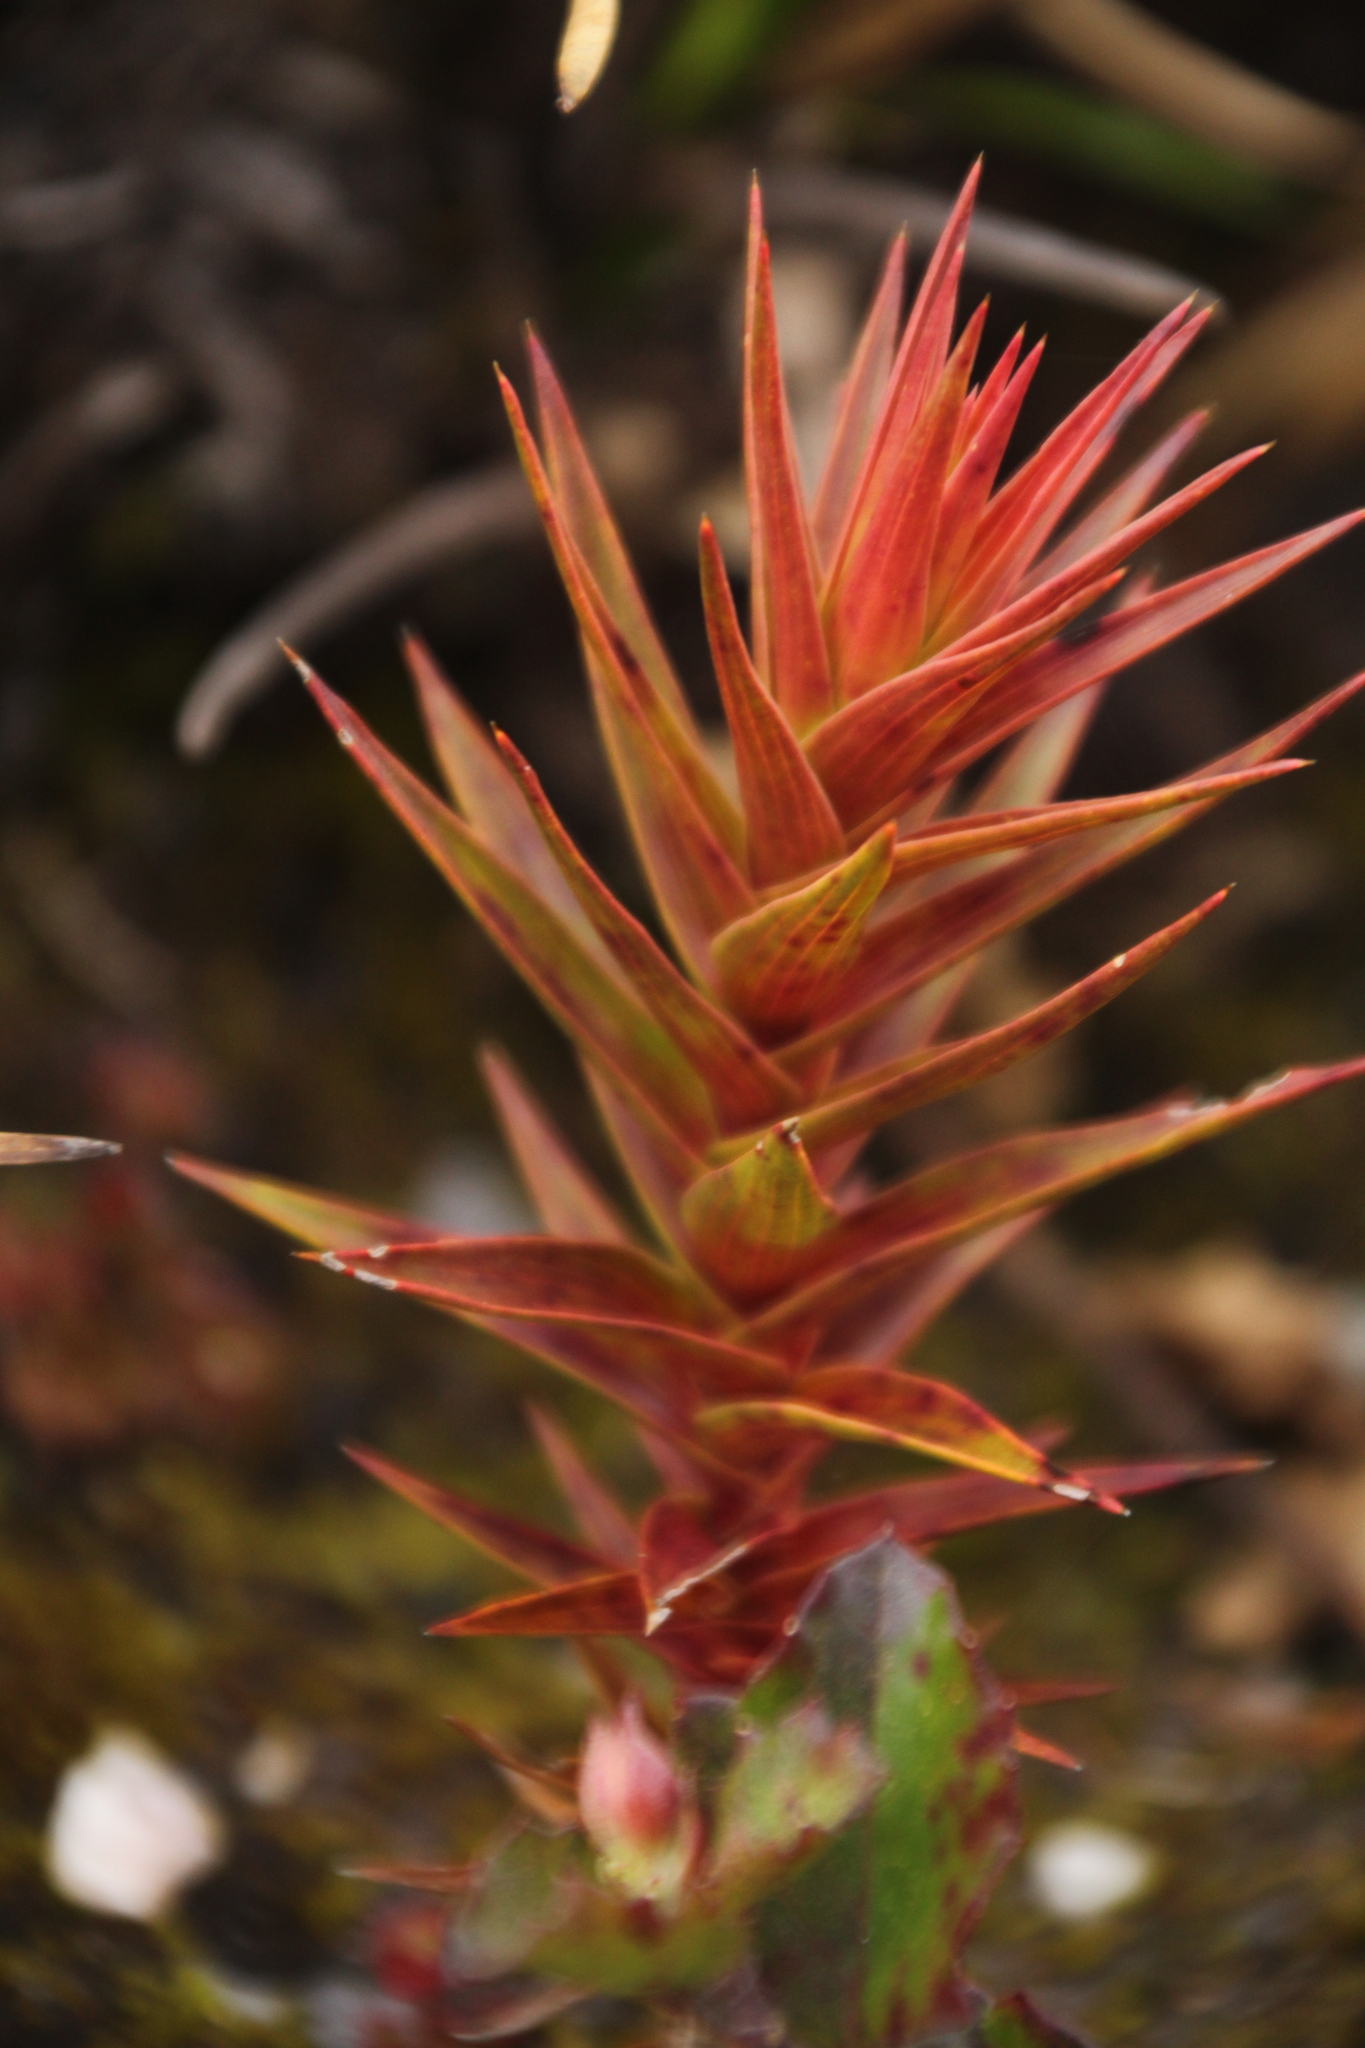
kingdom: Plantae
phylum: Tracheophyta
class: Magnoliopsida
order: Ericales
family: Ericaceae
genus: Andersonia
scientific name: Andersonia axilliflora
